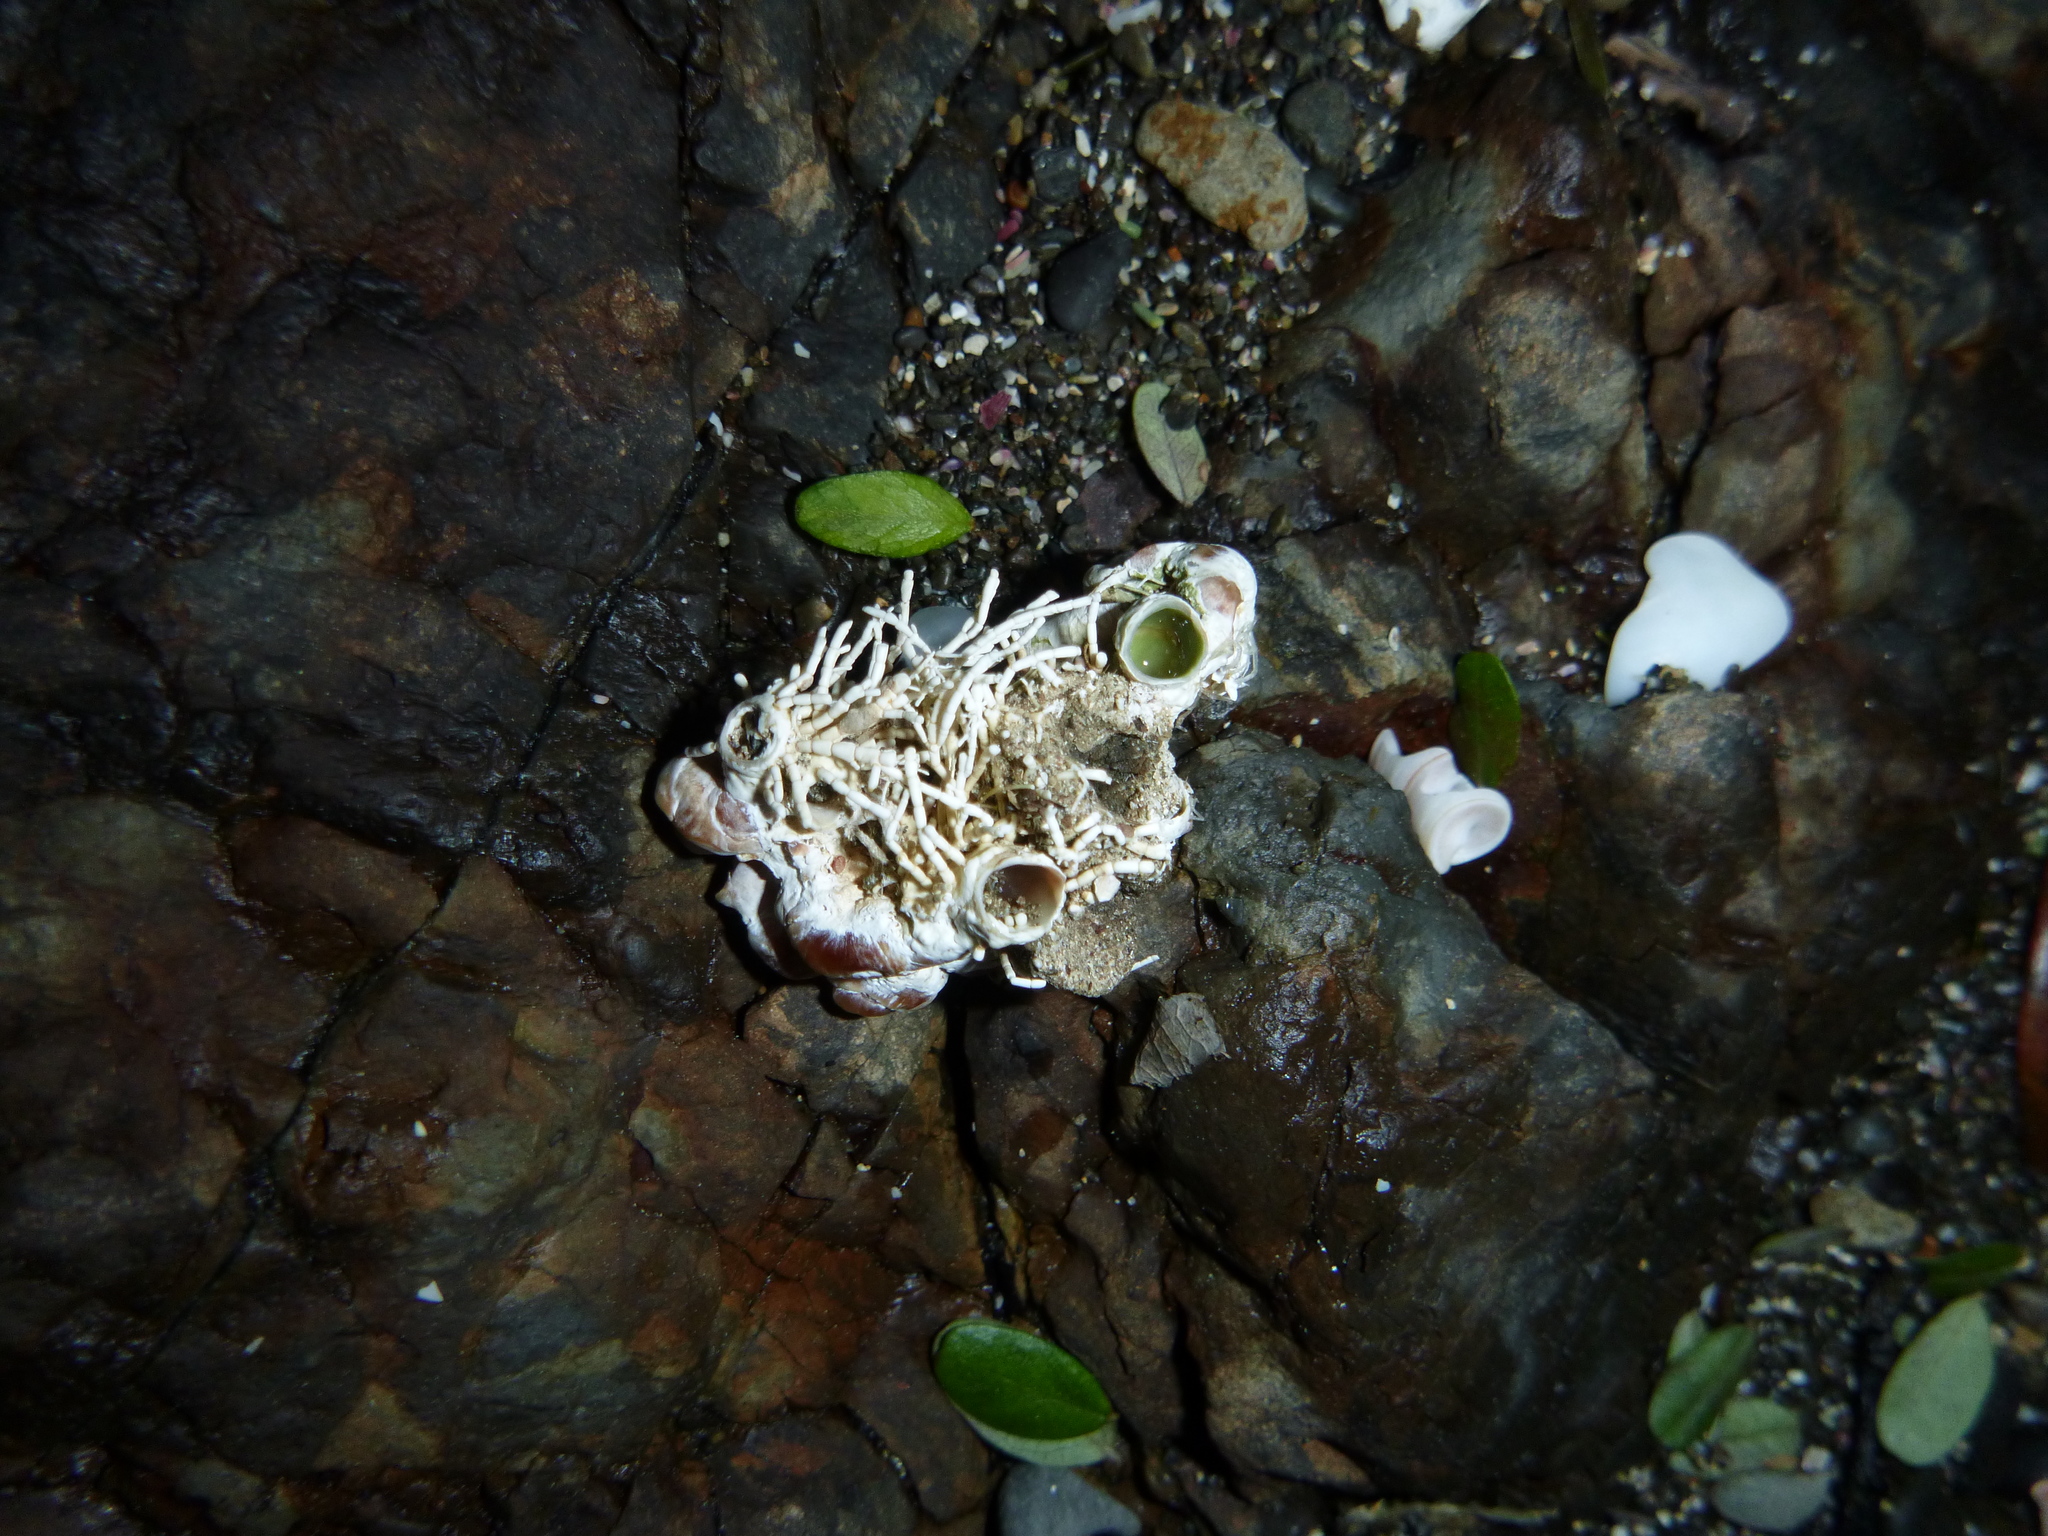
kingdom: Animalia
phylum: Mollusca
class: Gastropoda
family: Siliquariidae
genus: Stephopoma
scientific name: Stephopoma roseum
